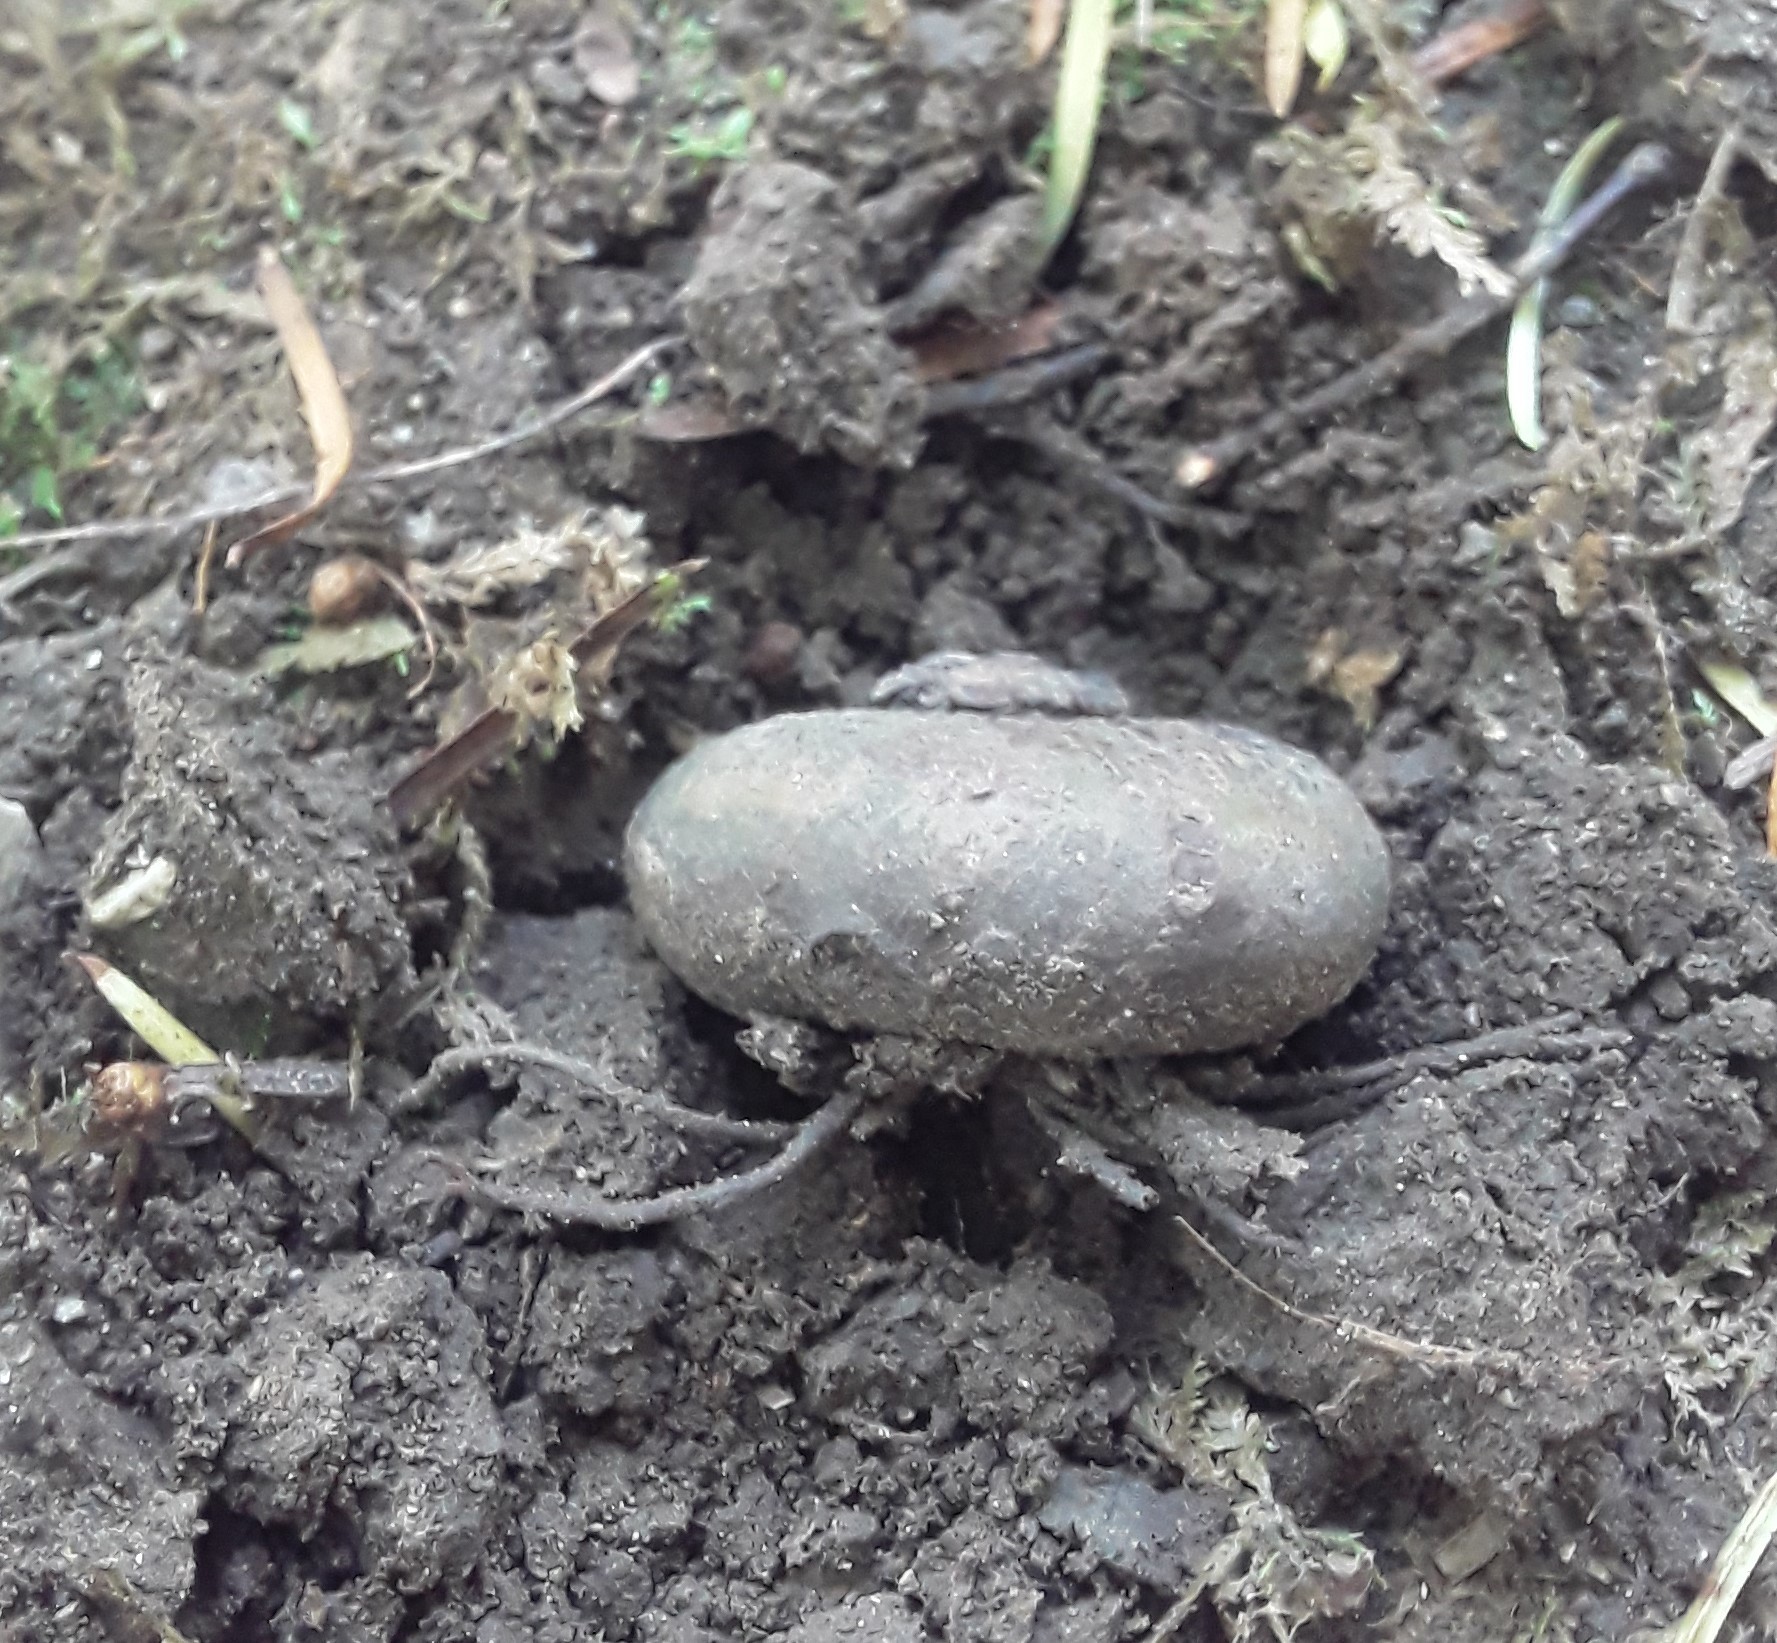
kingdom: Plantae
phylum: Tracheophyta
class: Magnoliopsida
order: Ericales
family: Primulaceae
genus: Cyclamen
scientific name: Cyclamen coum
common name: Eastern sowbread
